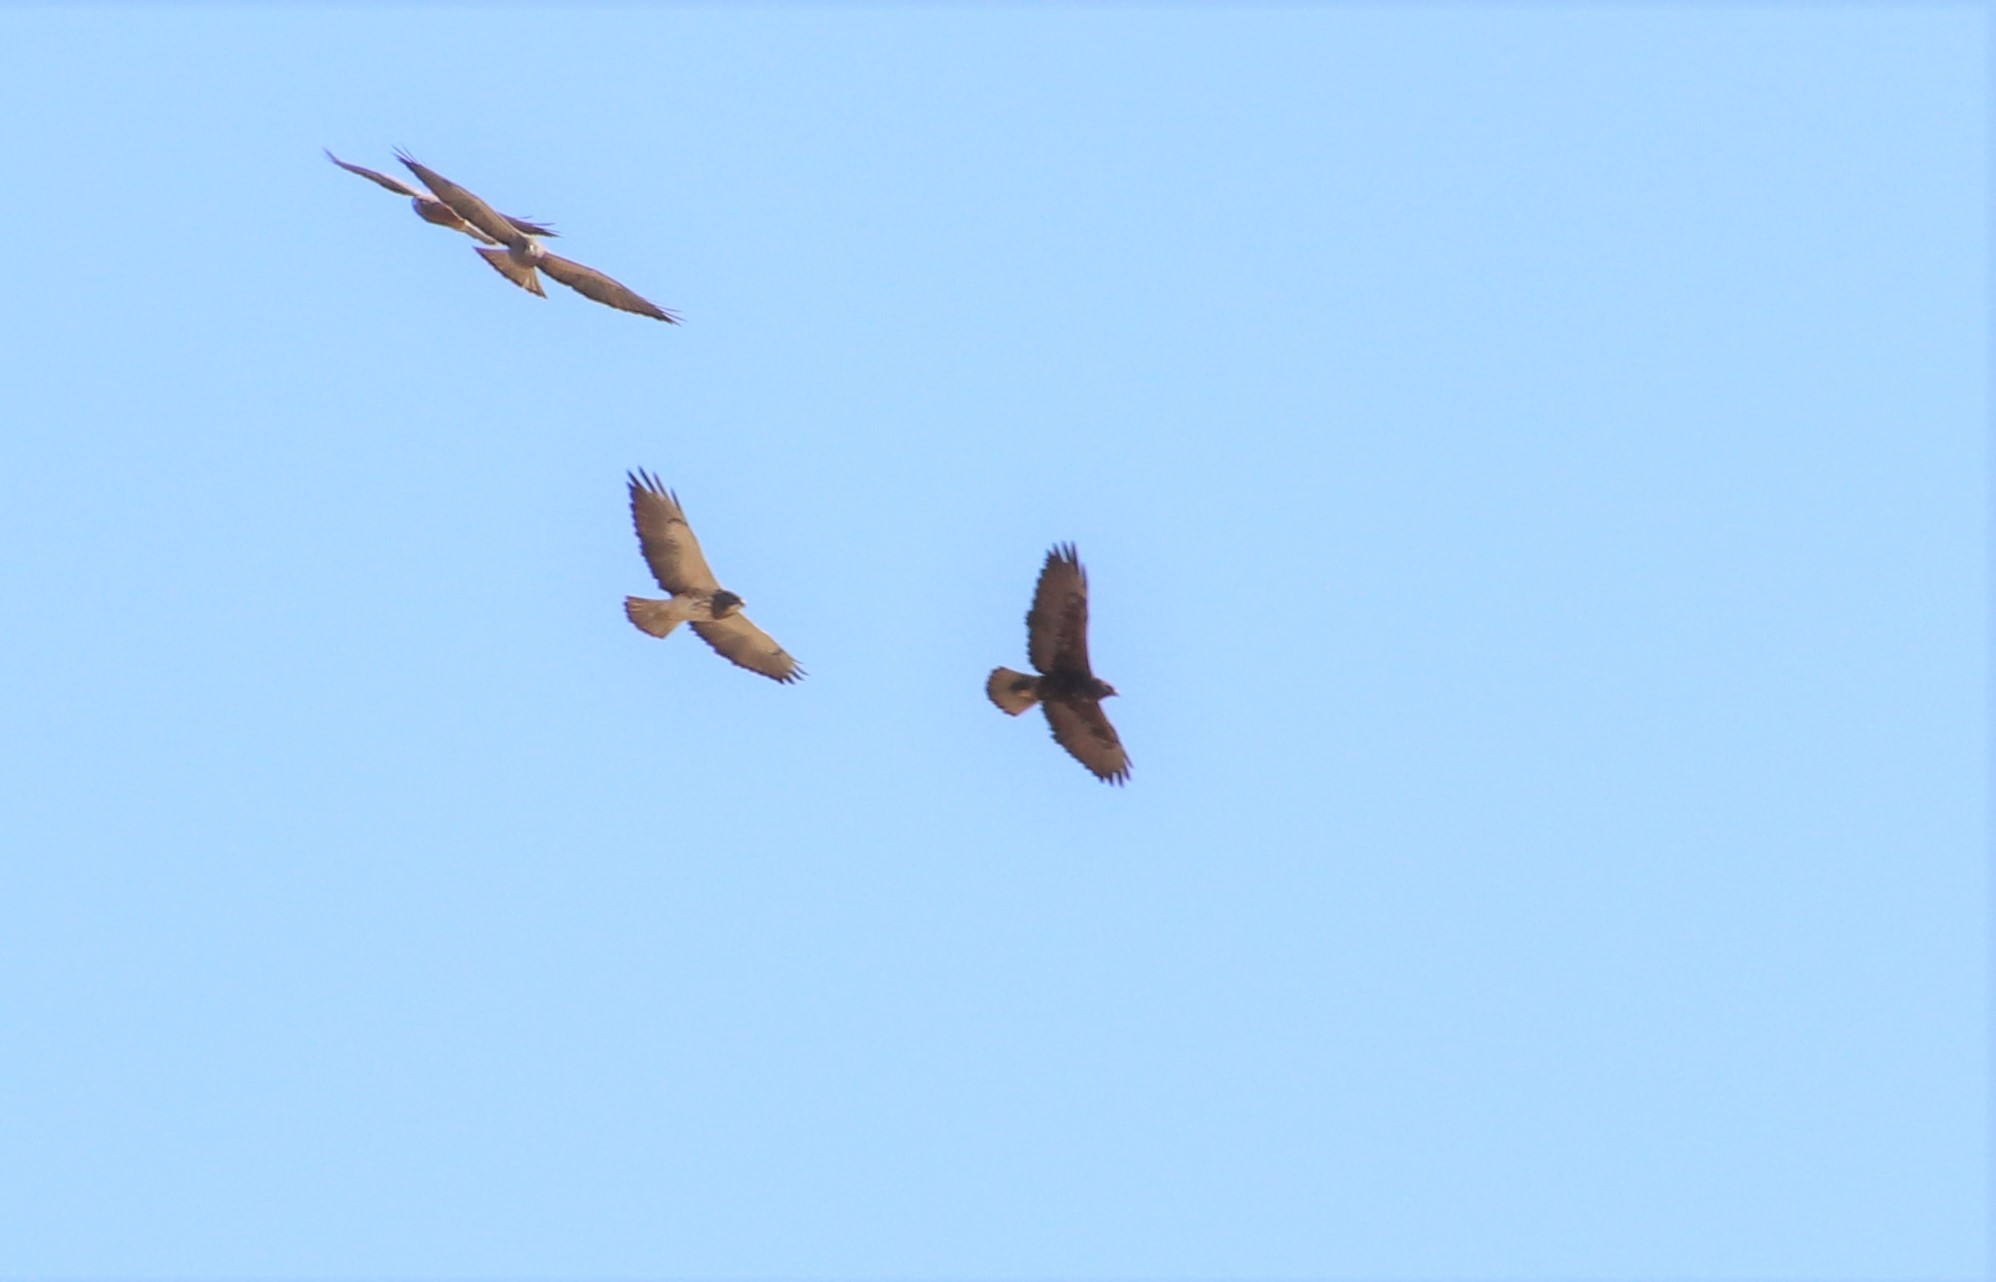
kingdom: Animalia
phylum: Chordata
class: Aves
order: Accipitriformes
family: Accipitridae
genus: Buteo
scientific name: Buteo swainsoni
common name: Swainson's hawk
